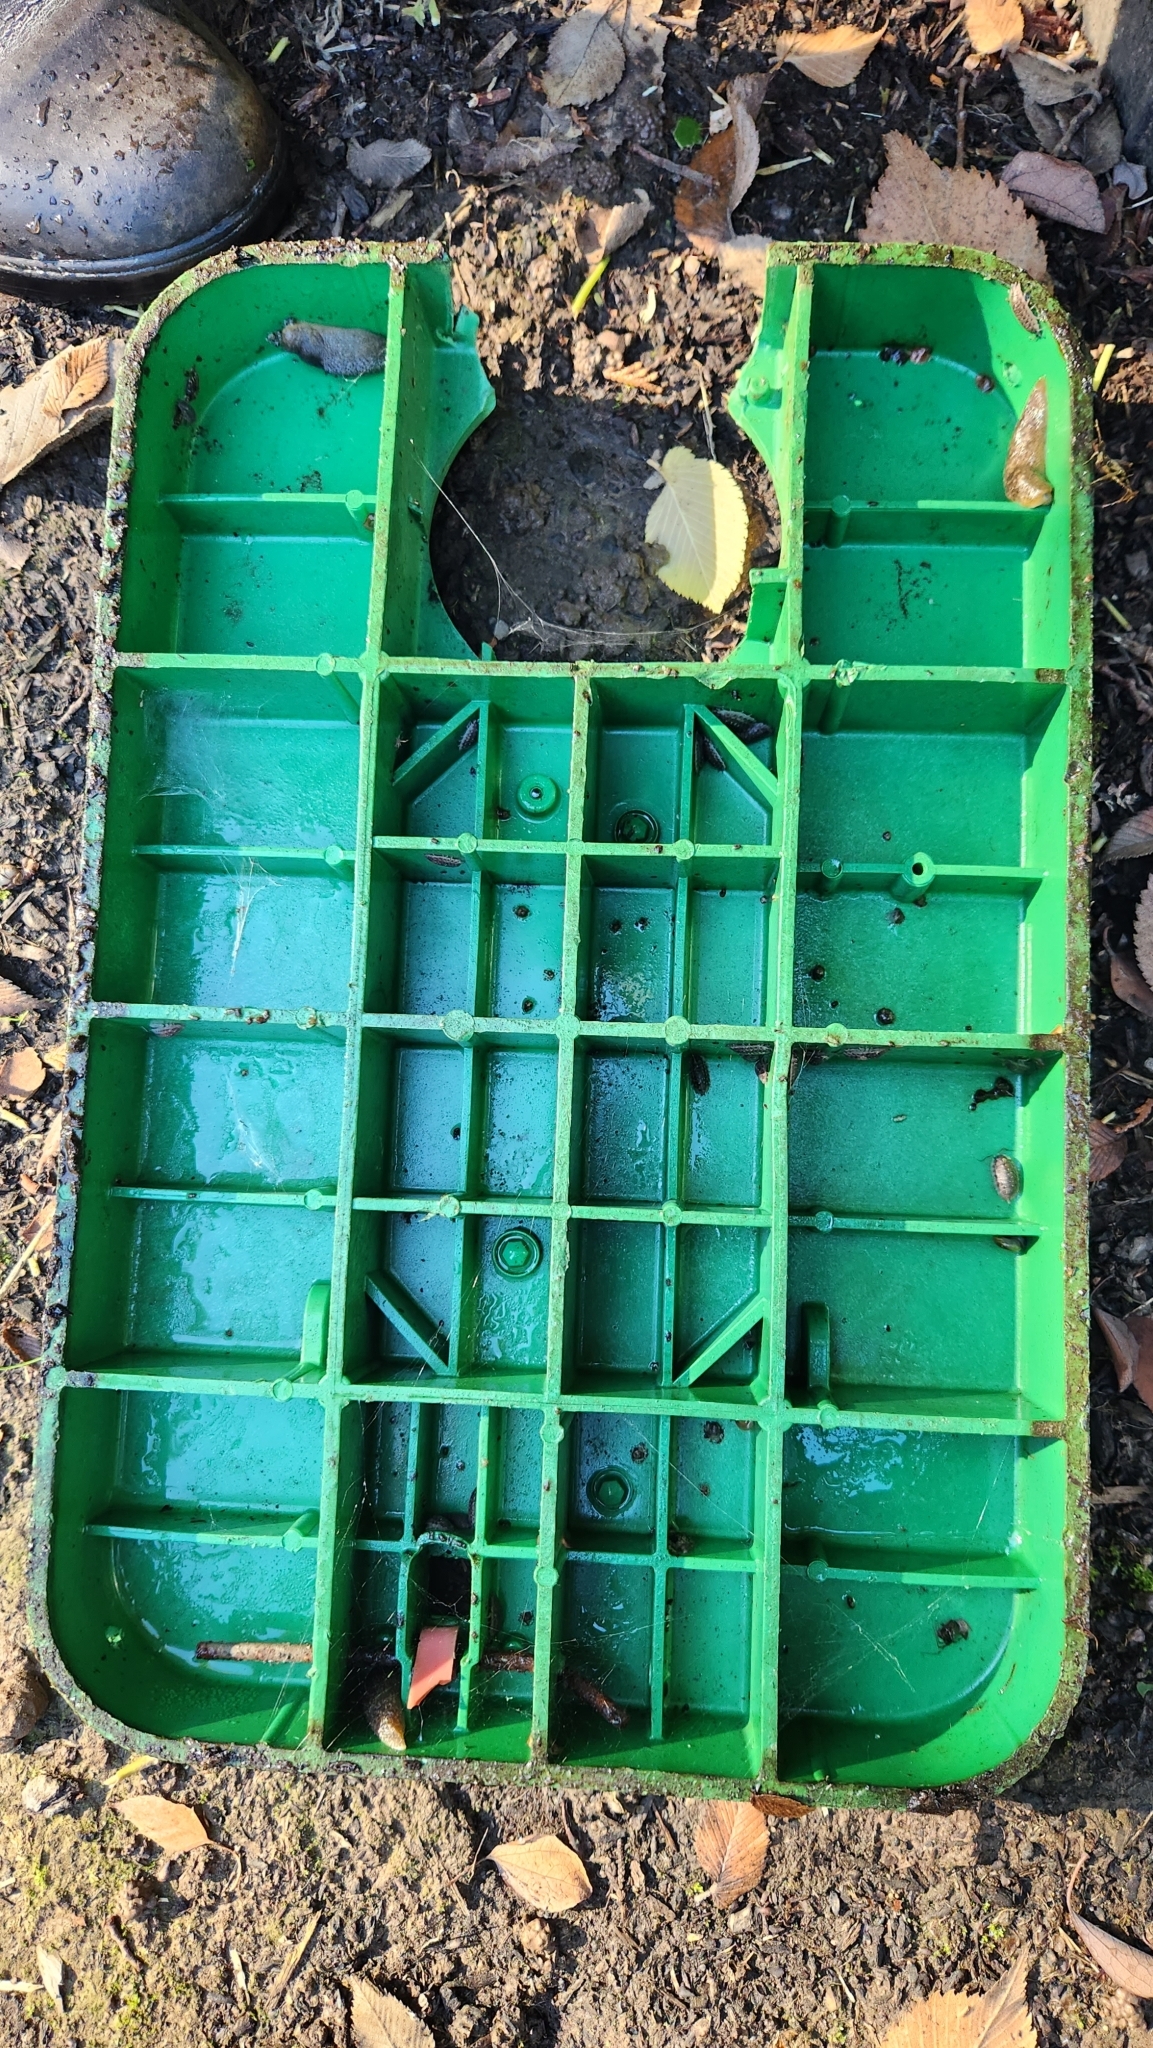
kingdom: Animalia
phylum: Mollusca
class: Gastropoda
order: Stylommatophora
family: Limacidae
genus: Limacus
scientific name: Limacus flavus
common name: Yellow gardenslug
